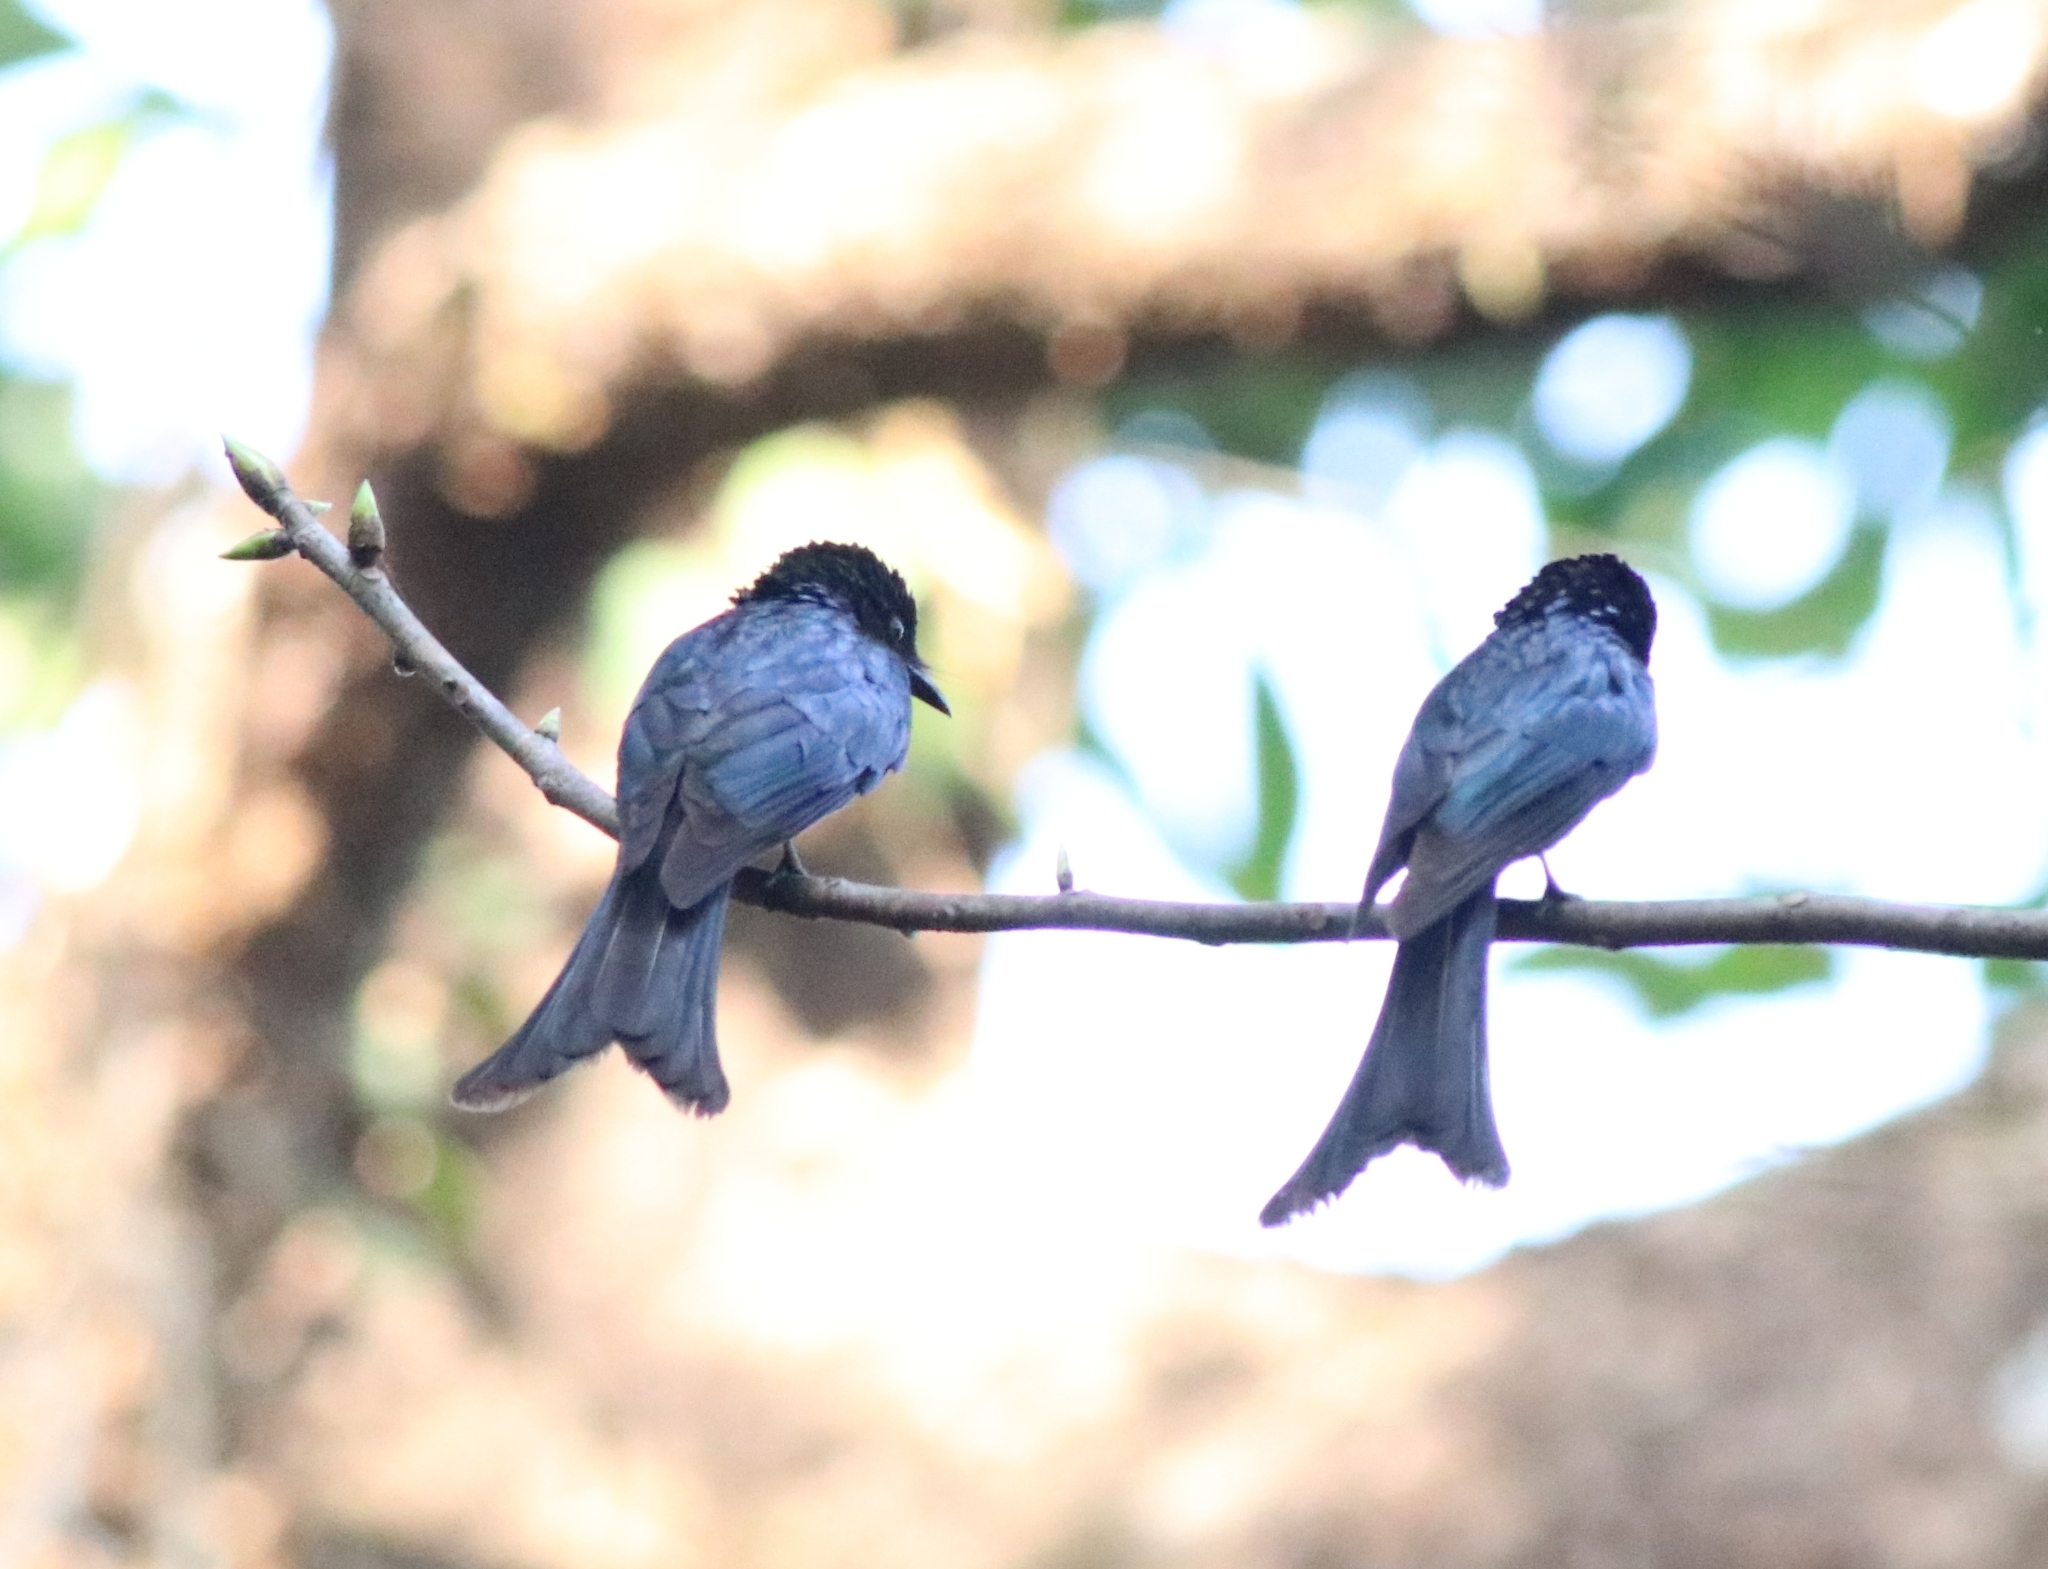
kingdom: Animalia
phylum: Chordata
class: Aves
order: Passeriformes
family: Dicruridae
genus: Dicrurus
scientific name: Dicrurus aeneus
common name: Bronzed drongo
